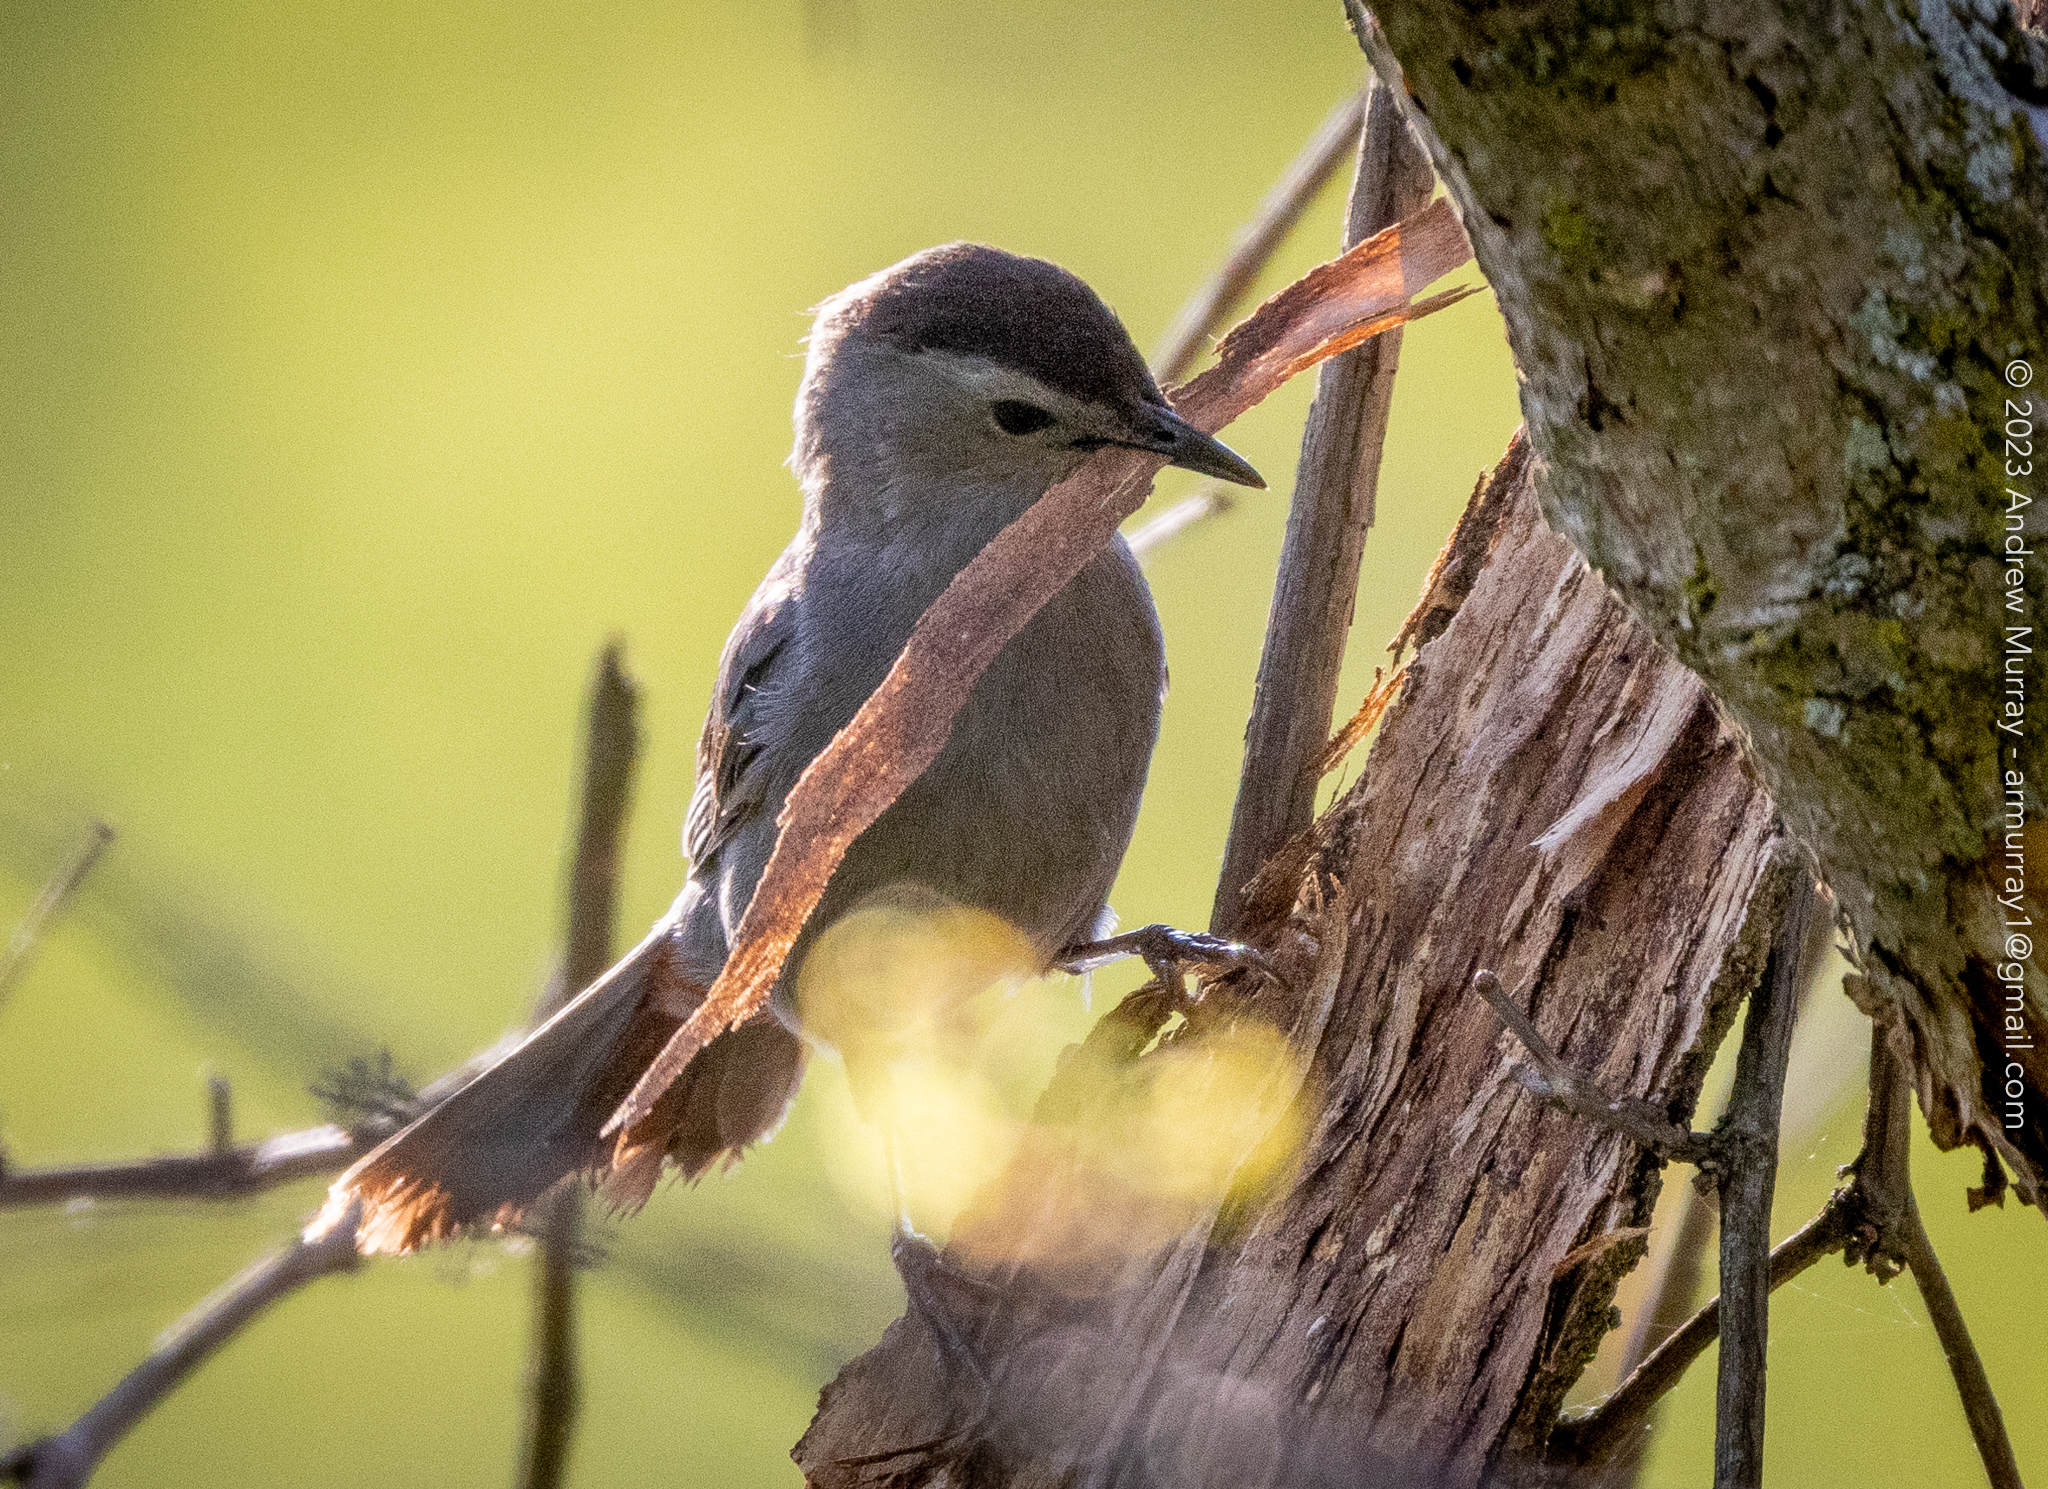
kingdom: Animalia
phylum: Chordata
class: Aves
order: Passeriformes
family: Mimidae
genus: Dumetella
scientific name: Dumetella carolinensis
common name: Gray catbird
